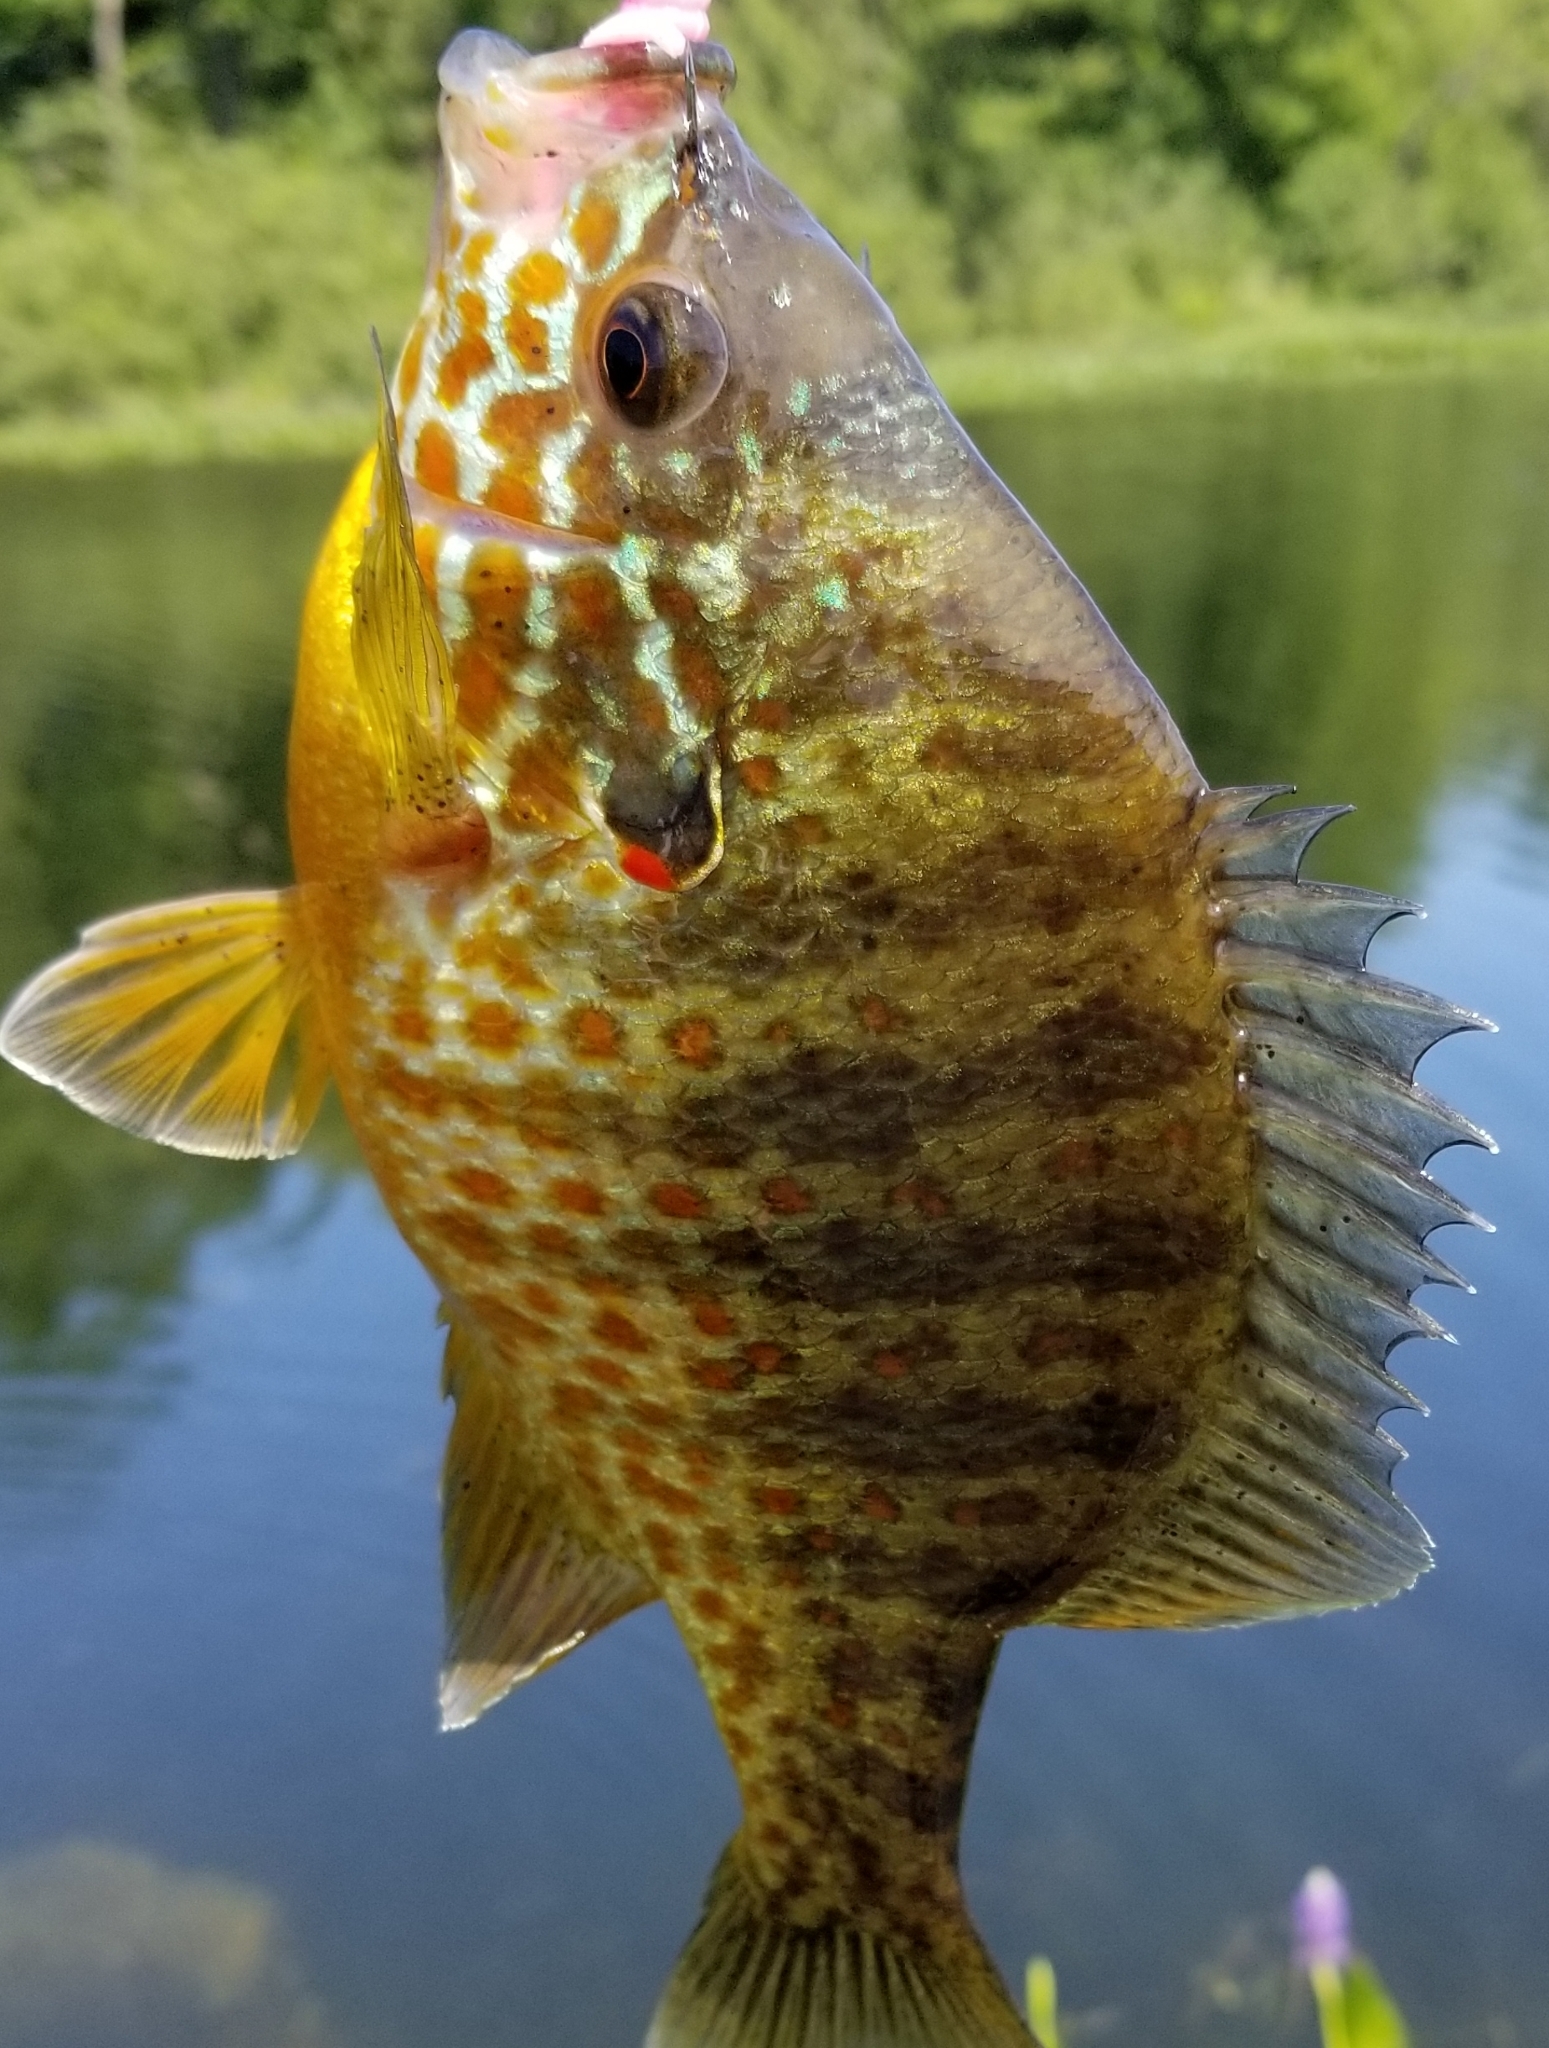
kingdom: Animalia
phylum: Chordata
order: Perciformes
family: Centrarchidae
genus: Lepomis
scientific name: Lepomis gibbosus
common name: Pumpkinseed
